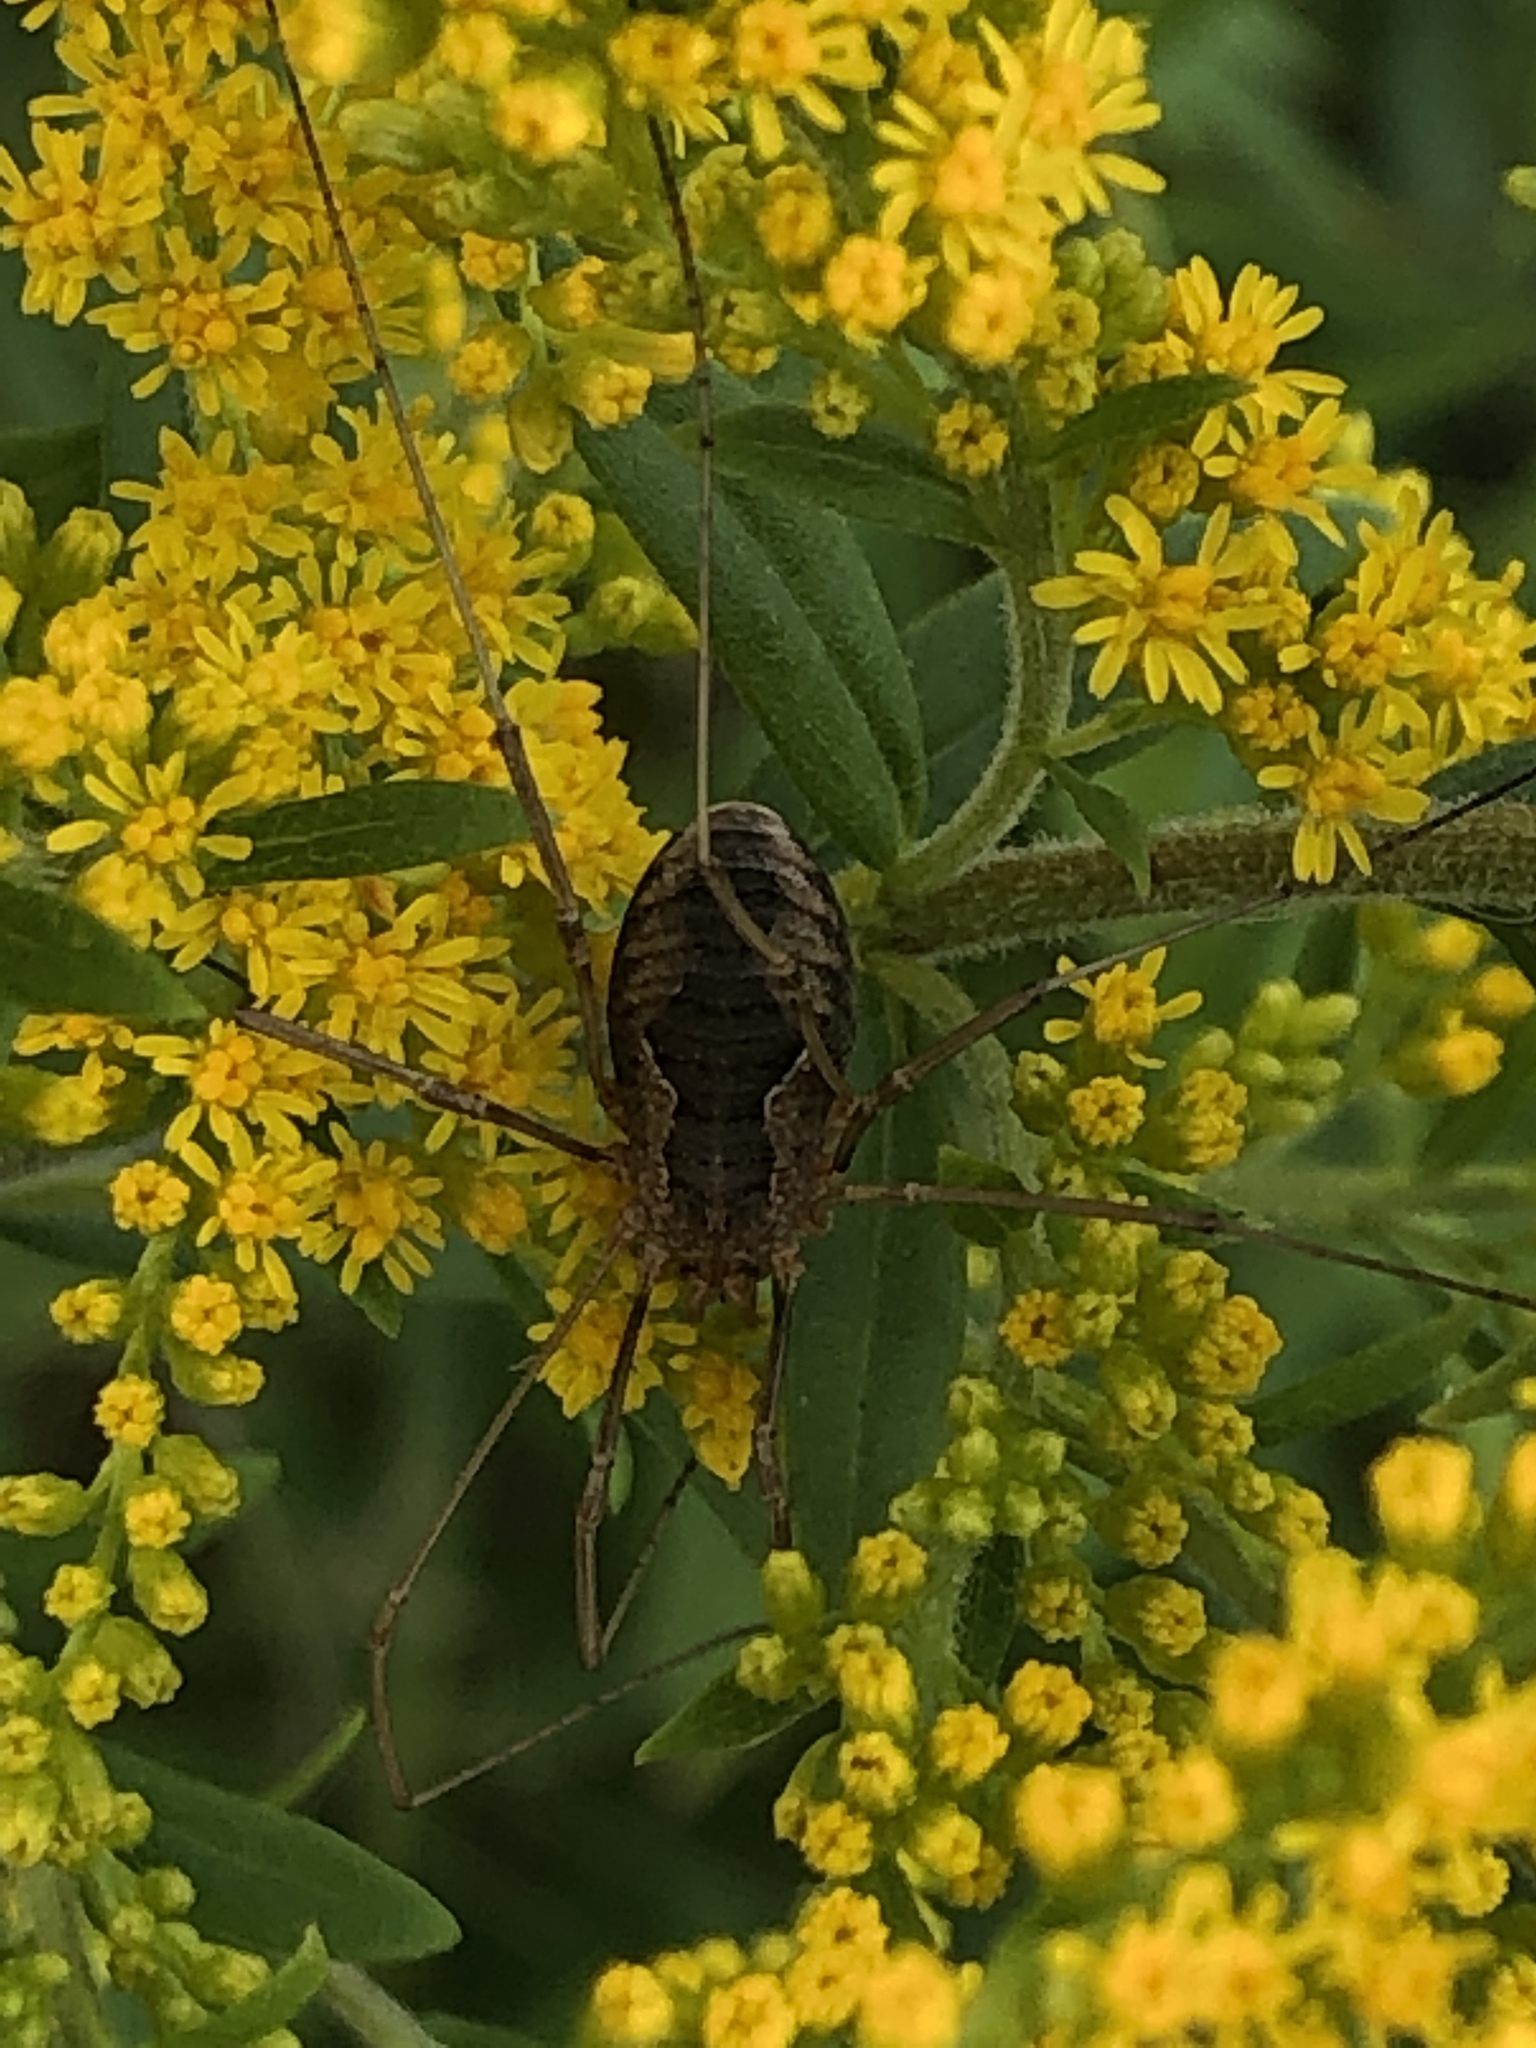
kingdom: Animalia
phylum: Arthropoda
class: Arachnida
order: Opiliones
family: Phalangiidae
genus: Phalangium
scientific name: Phalangium opilio
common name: Daddy longleg
